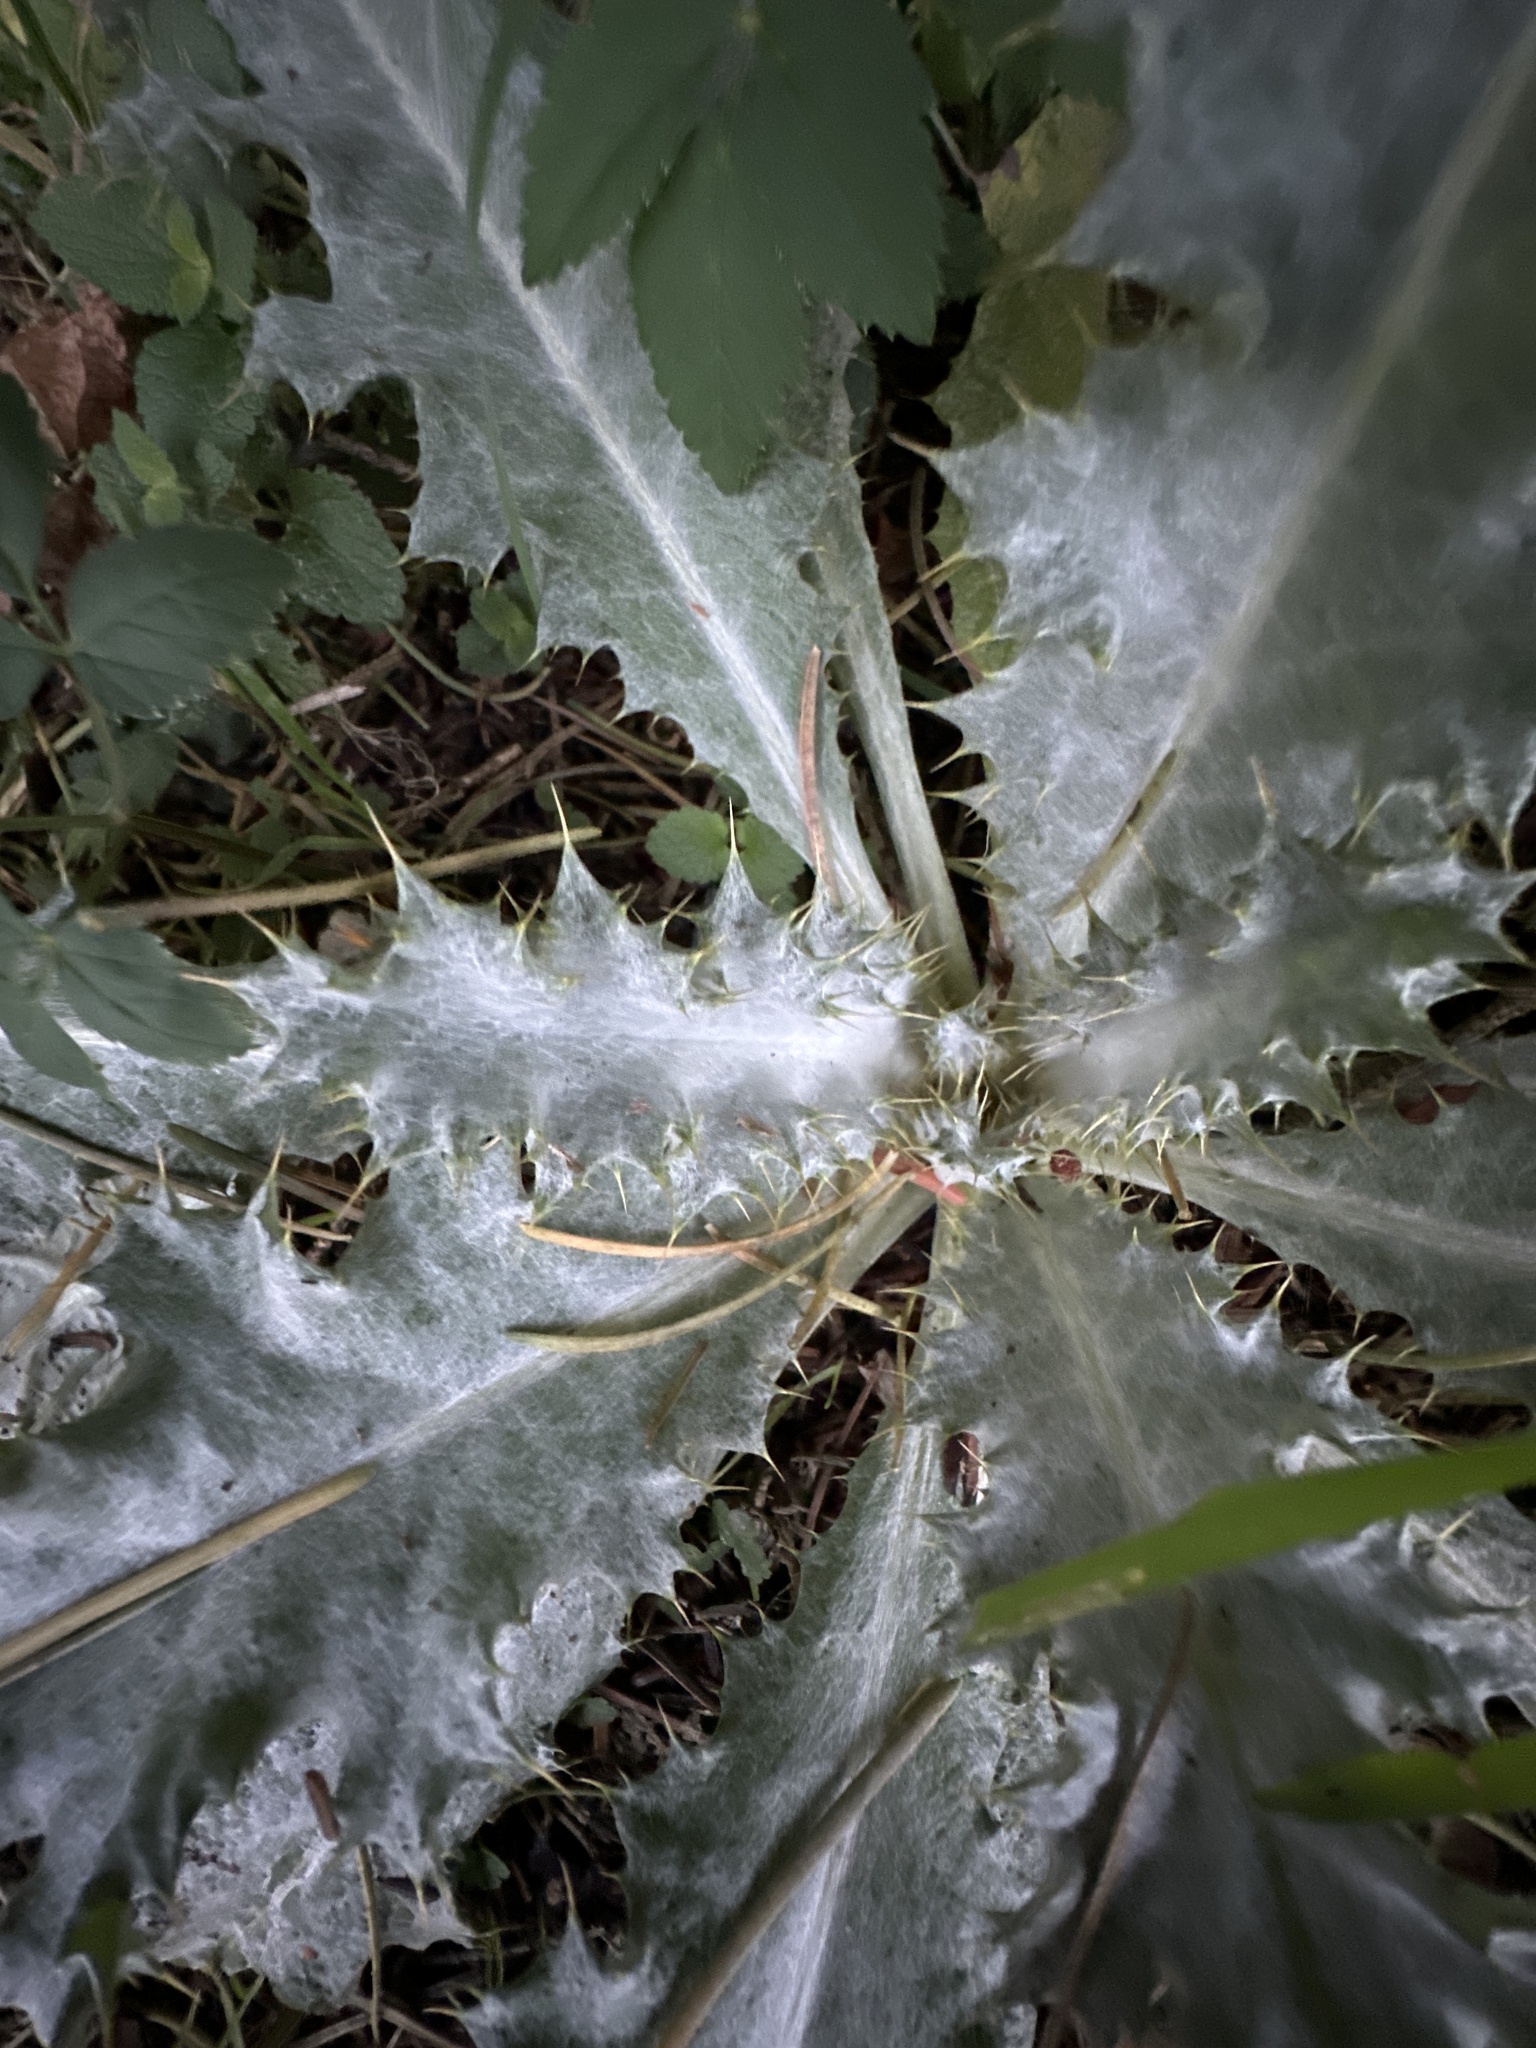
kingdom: Plantae
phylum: Tracheophyta
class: Magnoliopsida
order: Asterales
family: Asteraceae
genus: Onopordum
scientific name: Onopordum acanthium
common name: Scotch thistle
